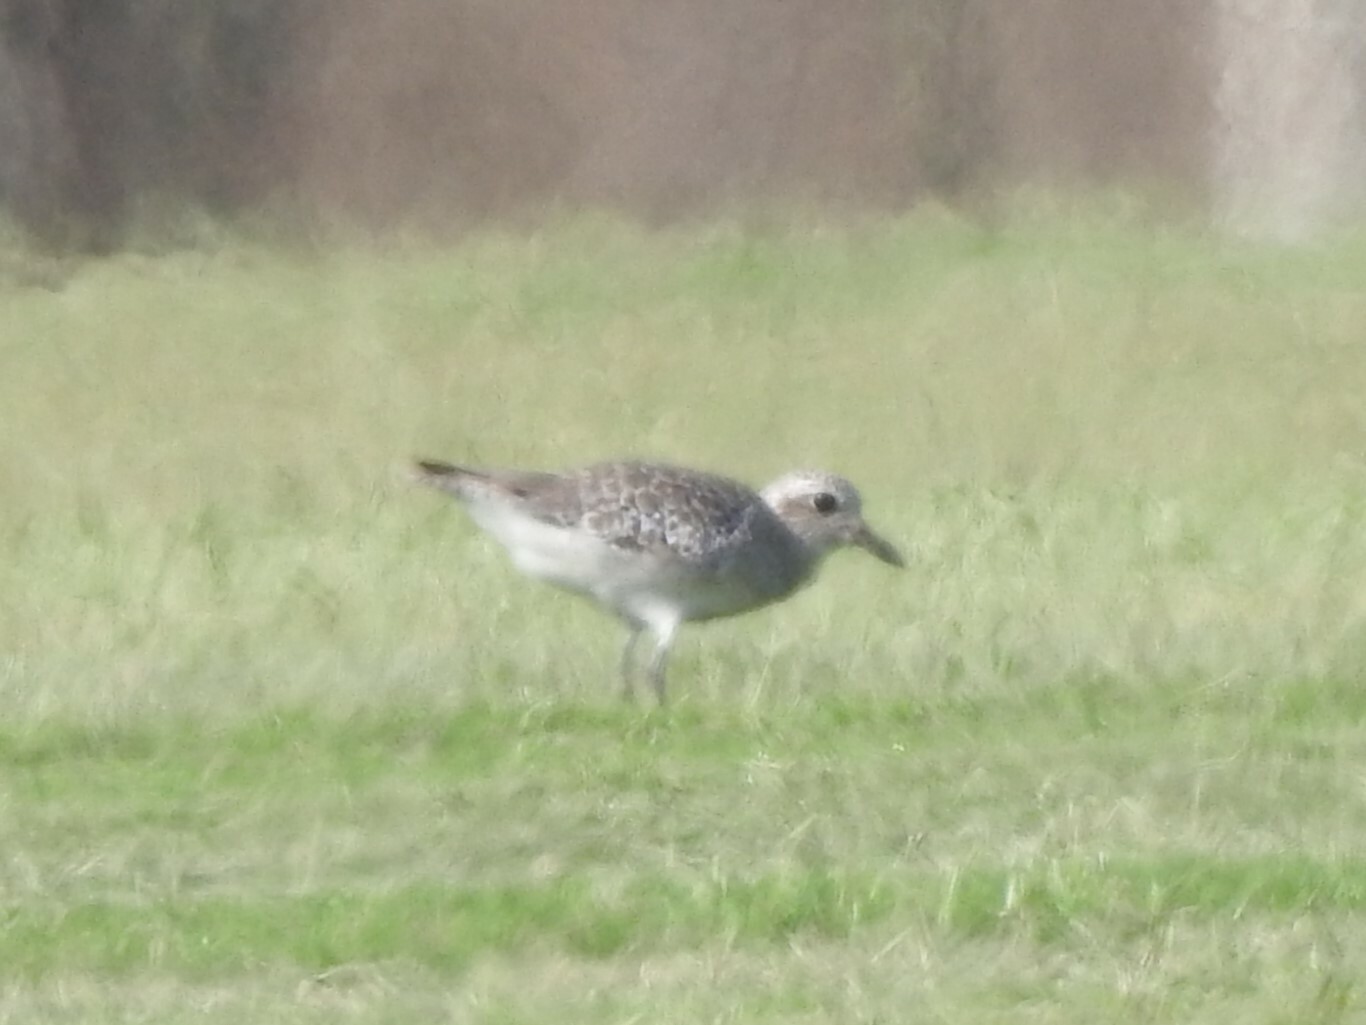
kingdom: Animalia
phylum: Chordata
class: Aves
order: Charadriiformes
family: Charadriidae
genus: Pluvialis
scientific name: Pluvialis squatarola
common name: Grey plover
